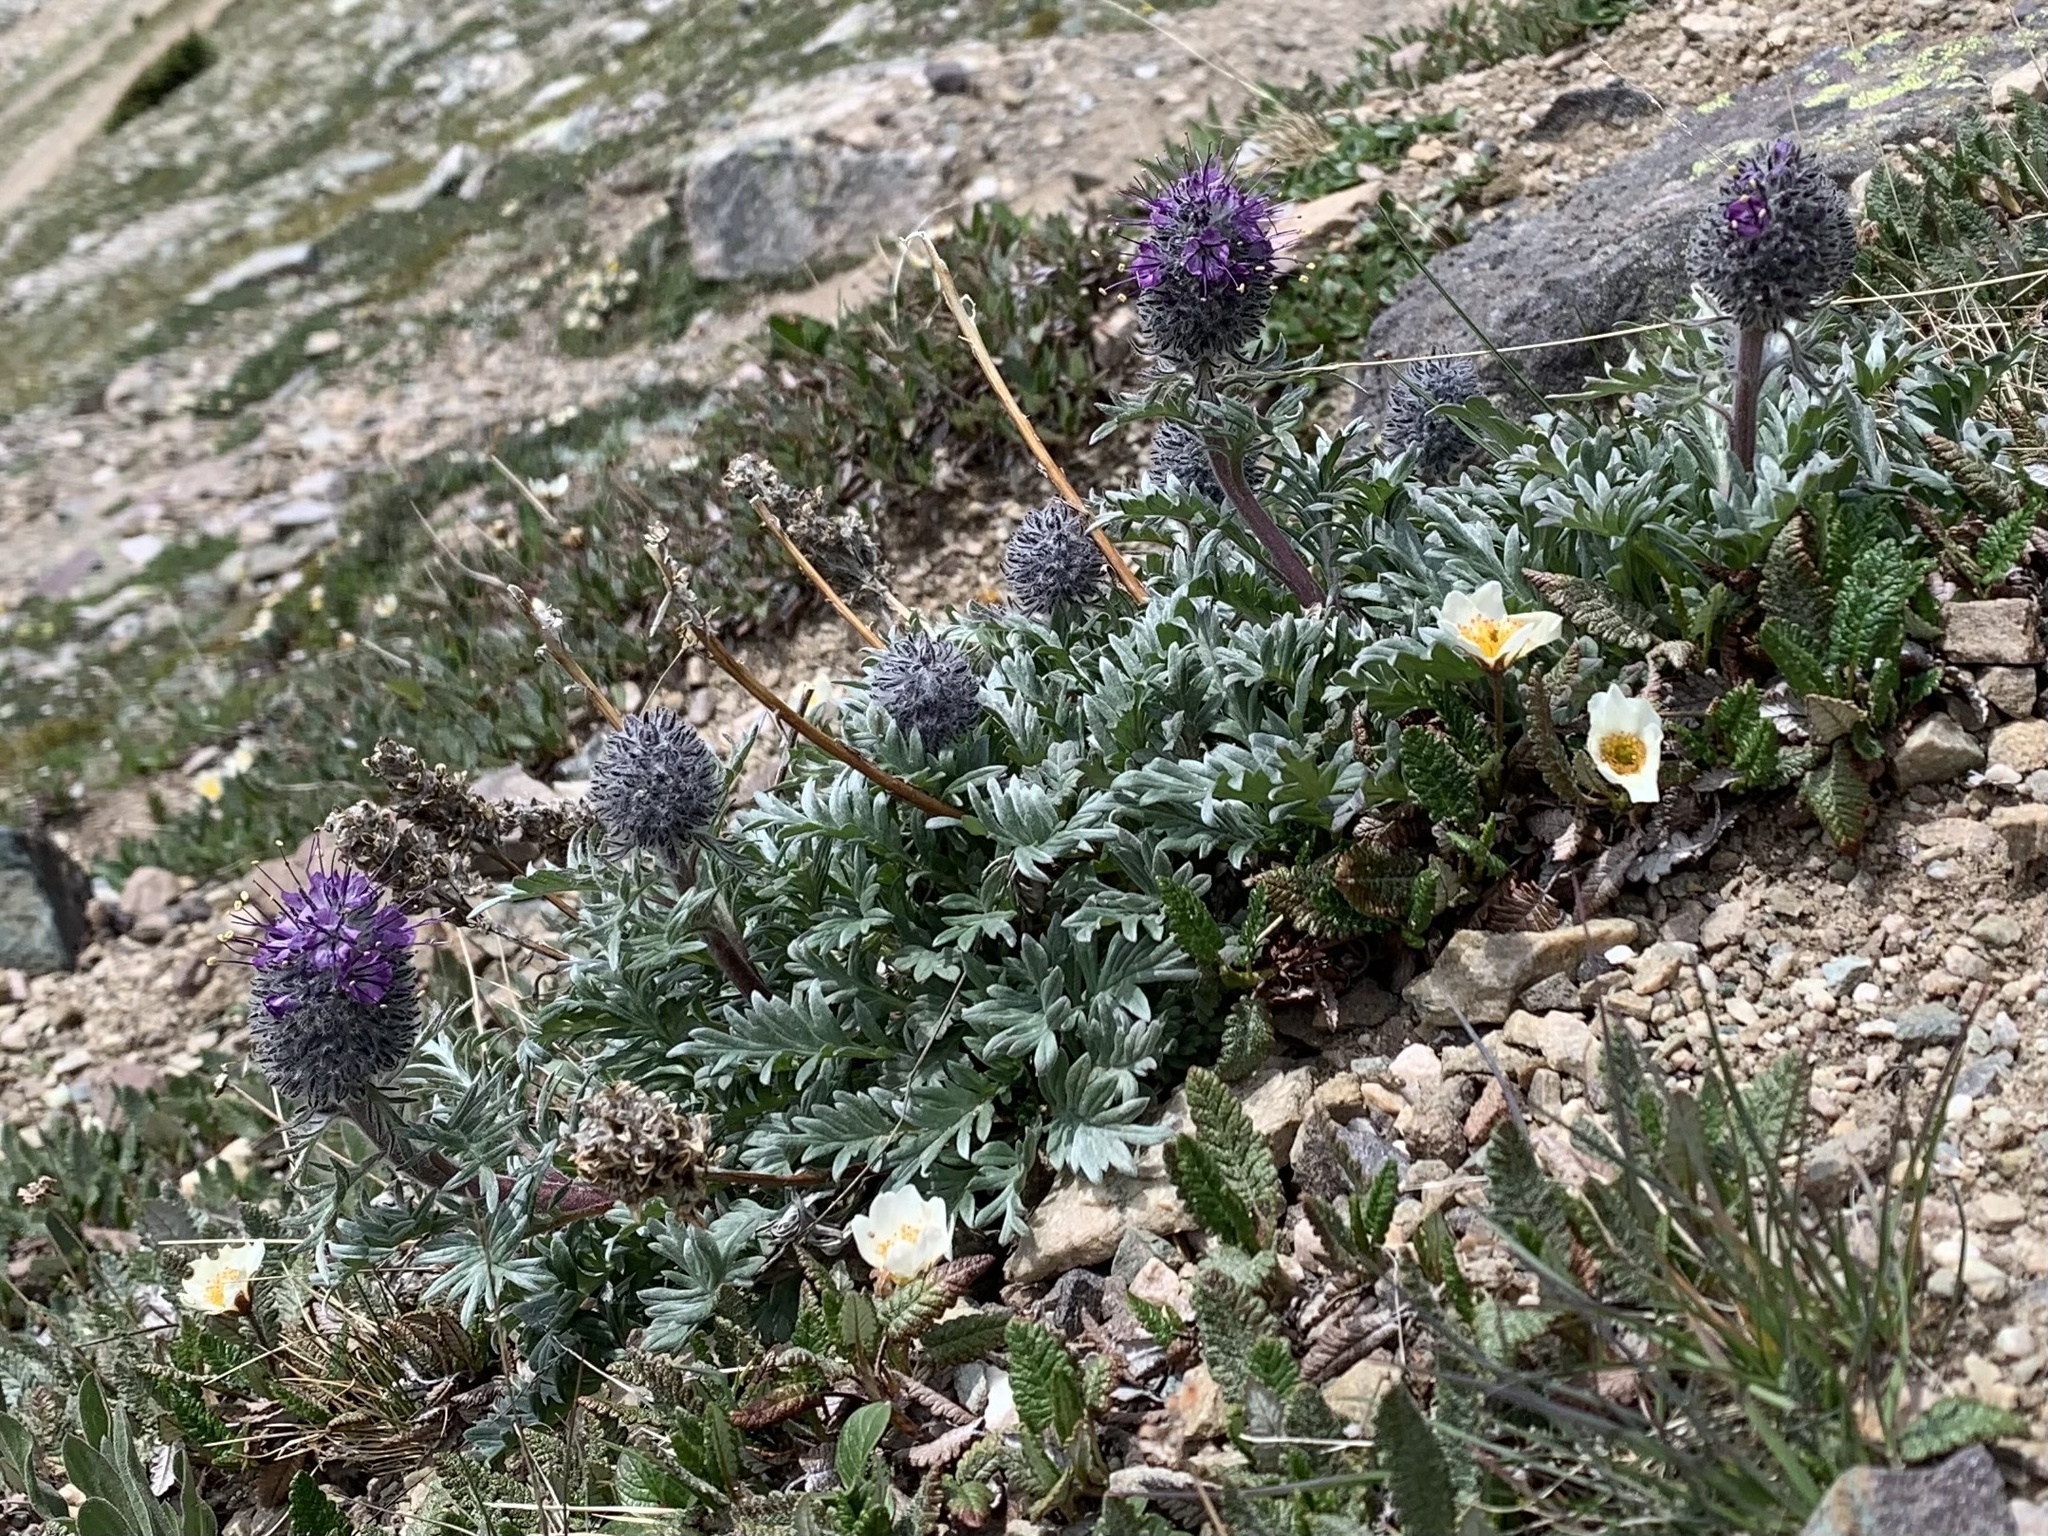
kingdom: Plantae
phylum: Tracheophyta
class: Magnoliopsida
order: Boraginales
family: Hydrophyllaceae
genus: Phacelia
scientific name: Phacelia sericea
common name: Silky phacelia
